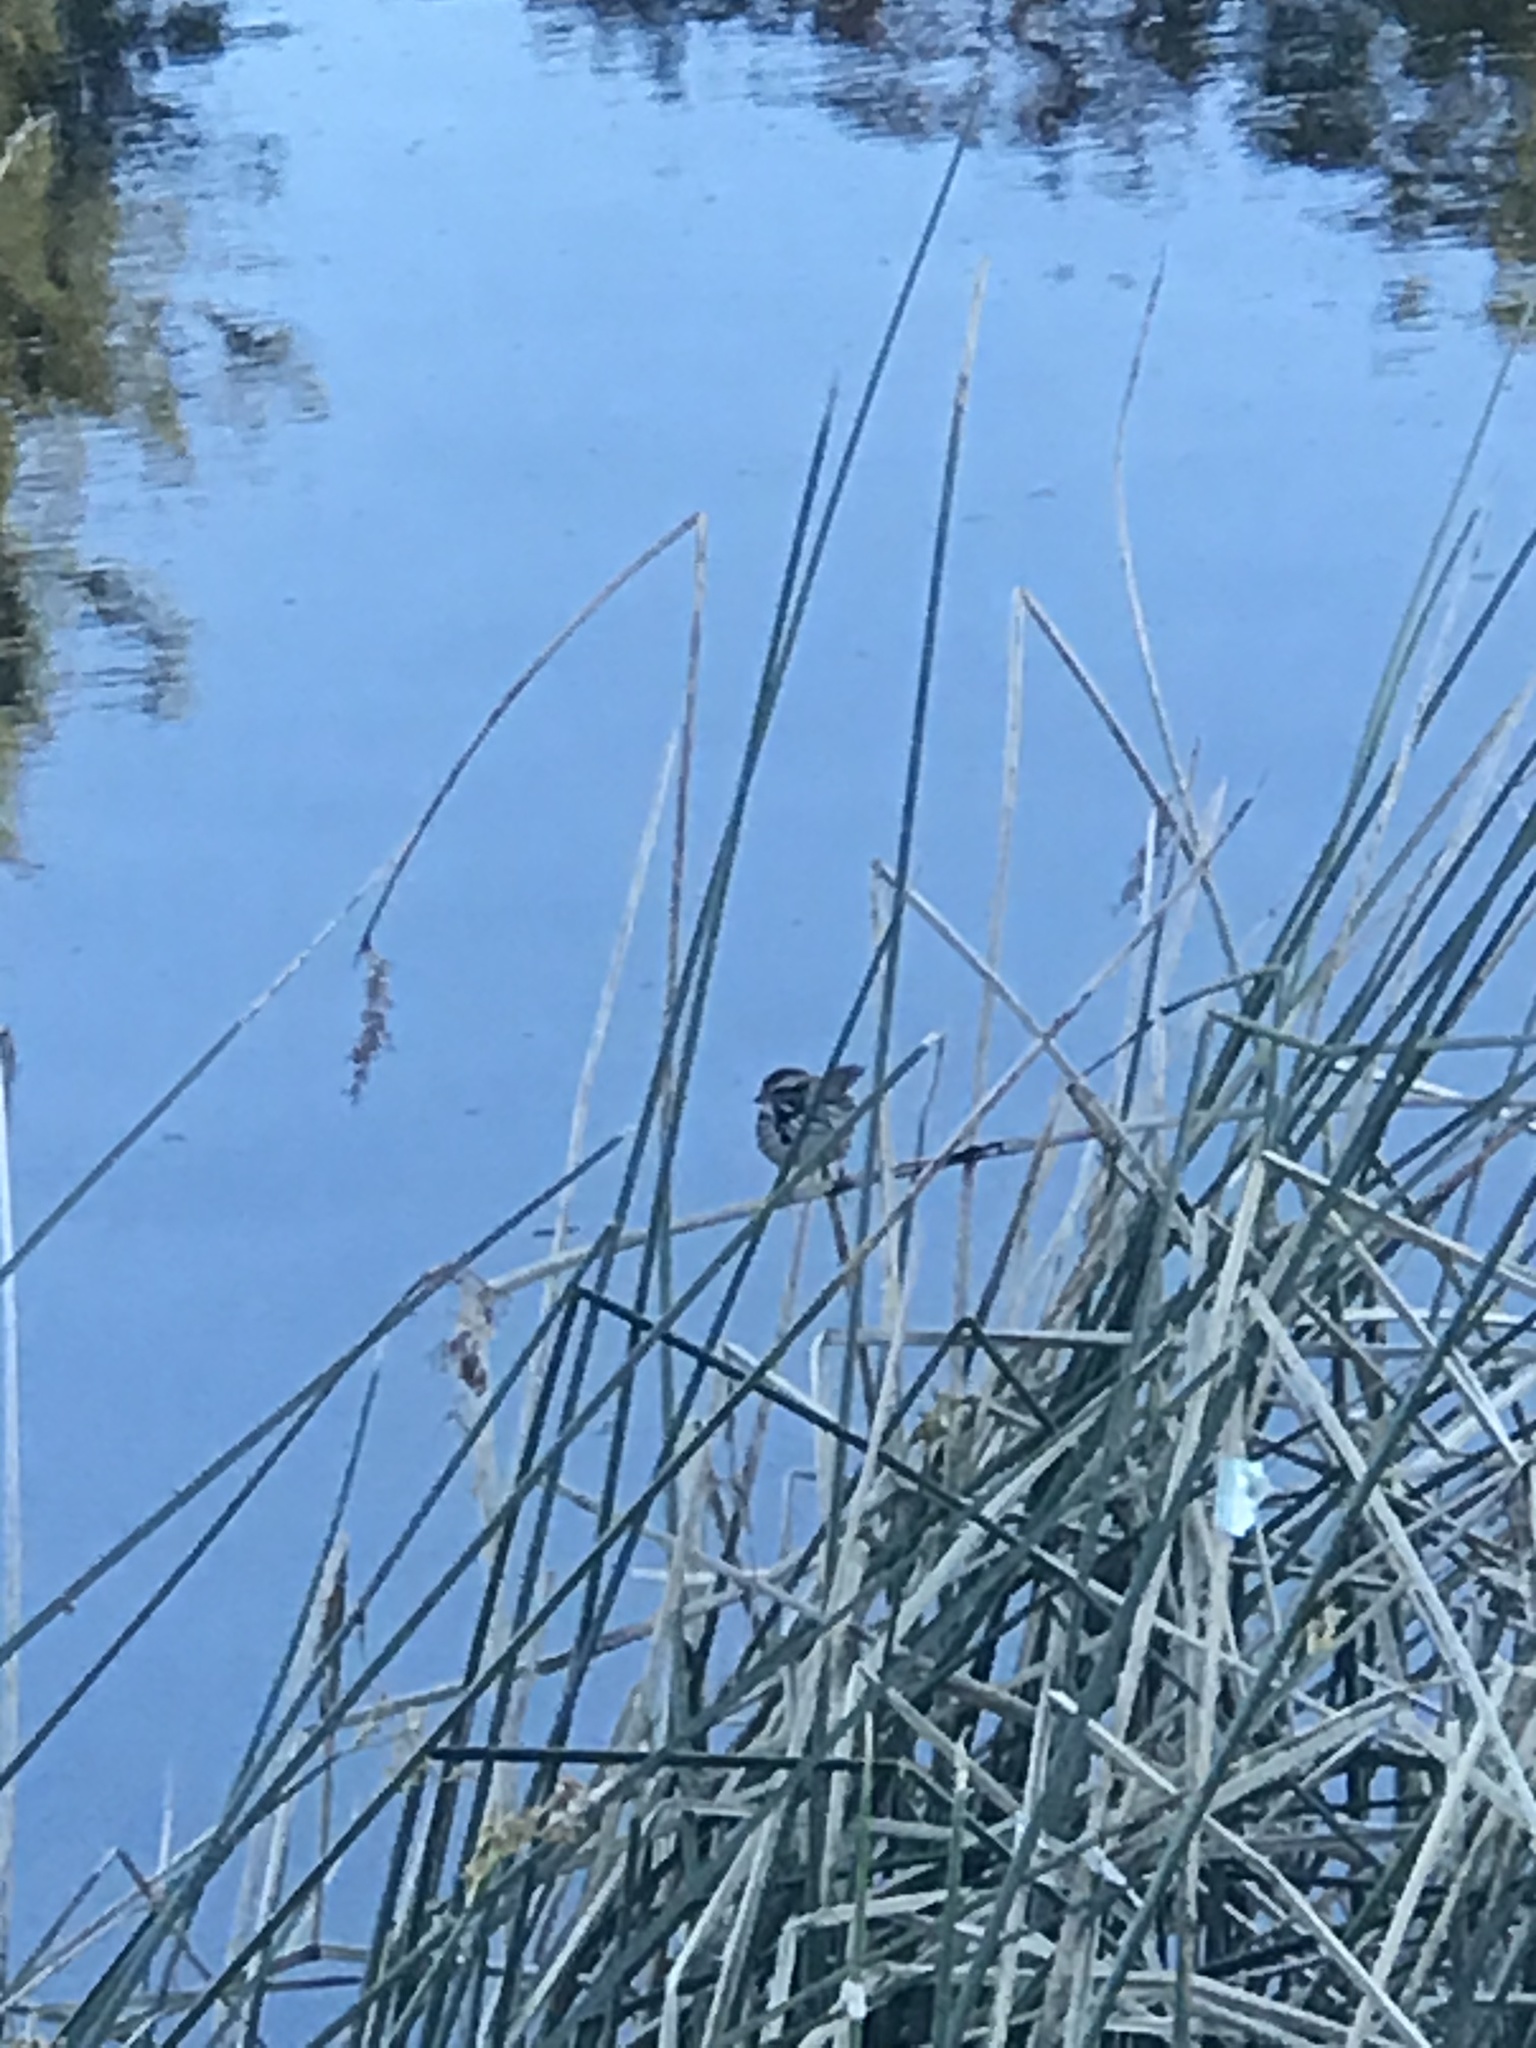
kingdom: Animalia
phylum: Chordata
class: Aves
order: Passeriformes
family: Passerellidae
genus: Melospiza
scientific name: Melospiza melodia
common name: Song sparrow
